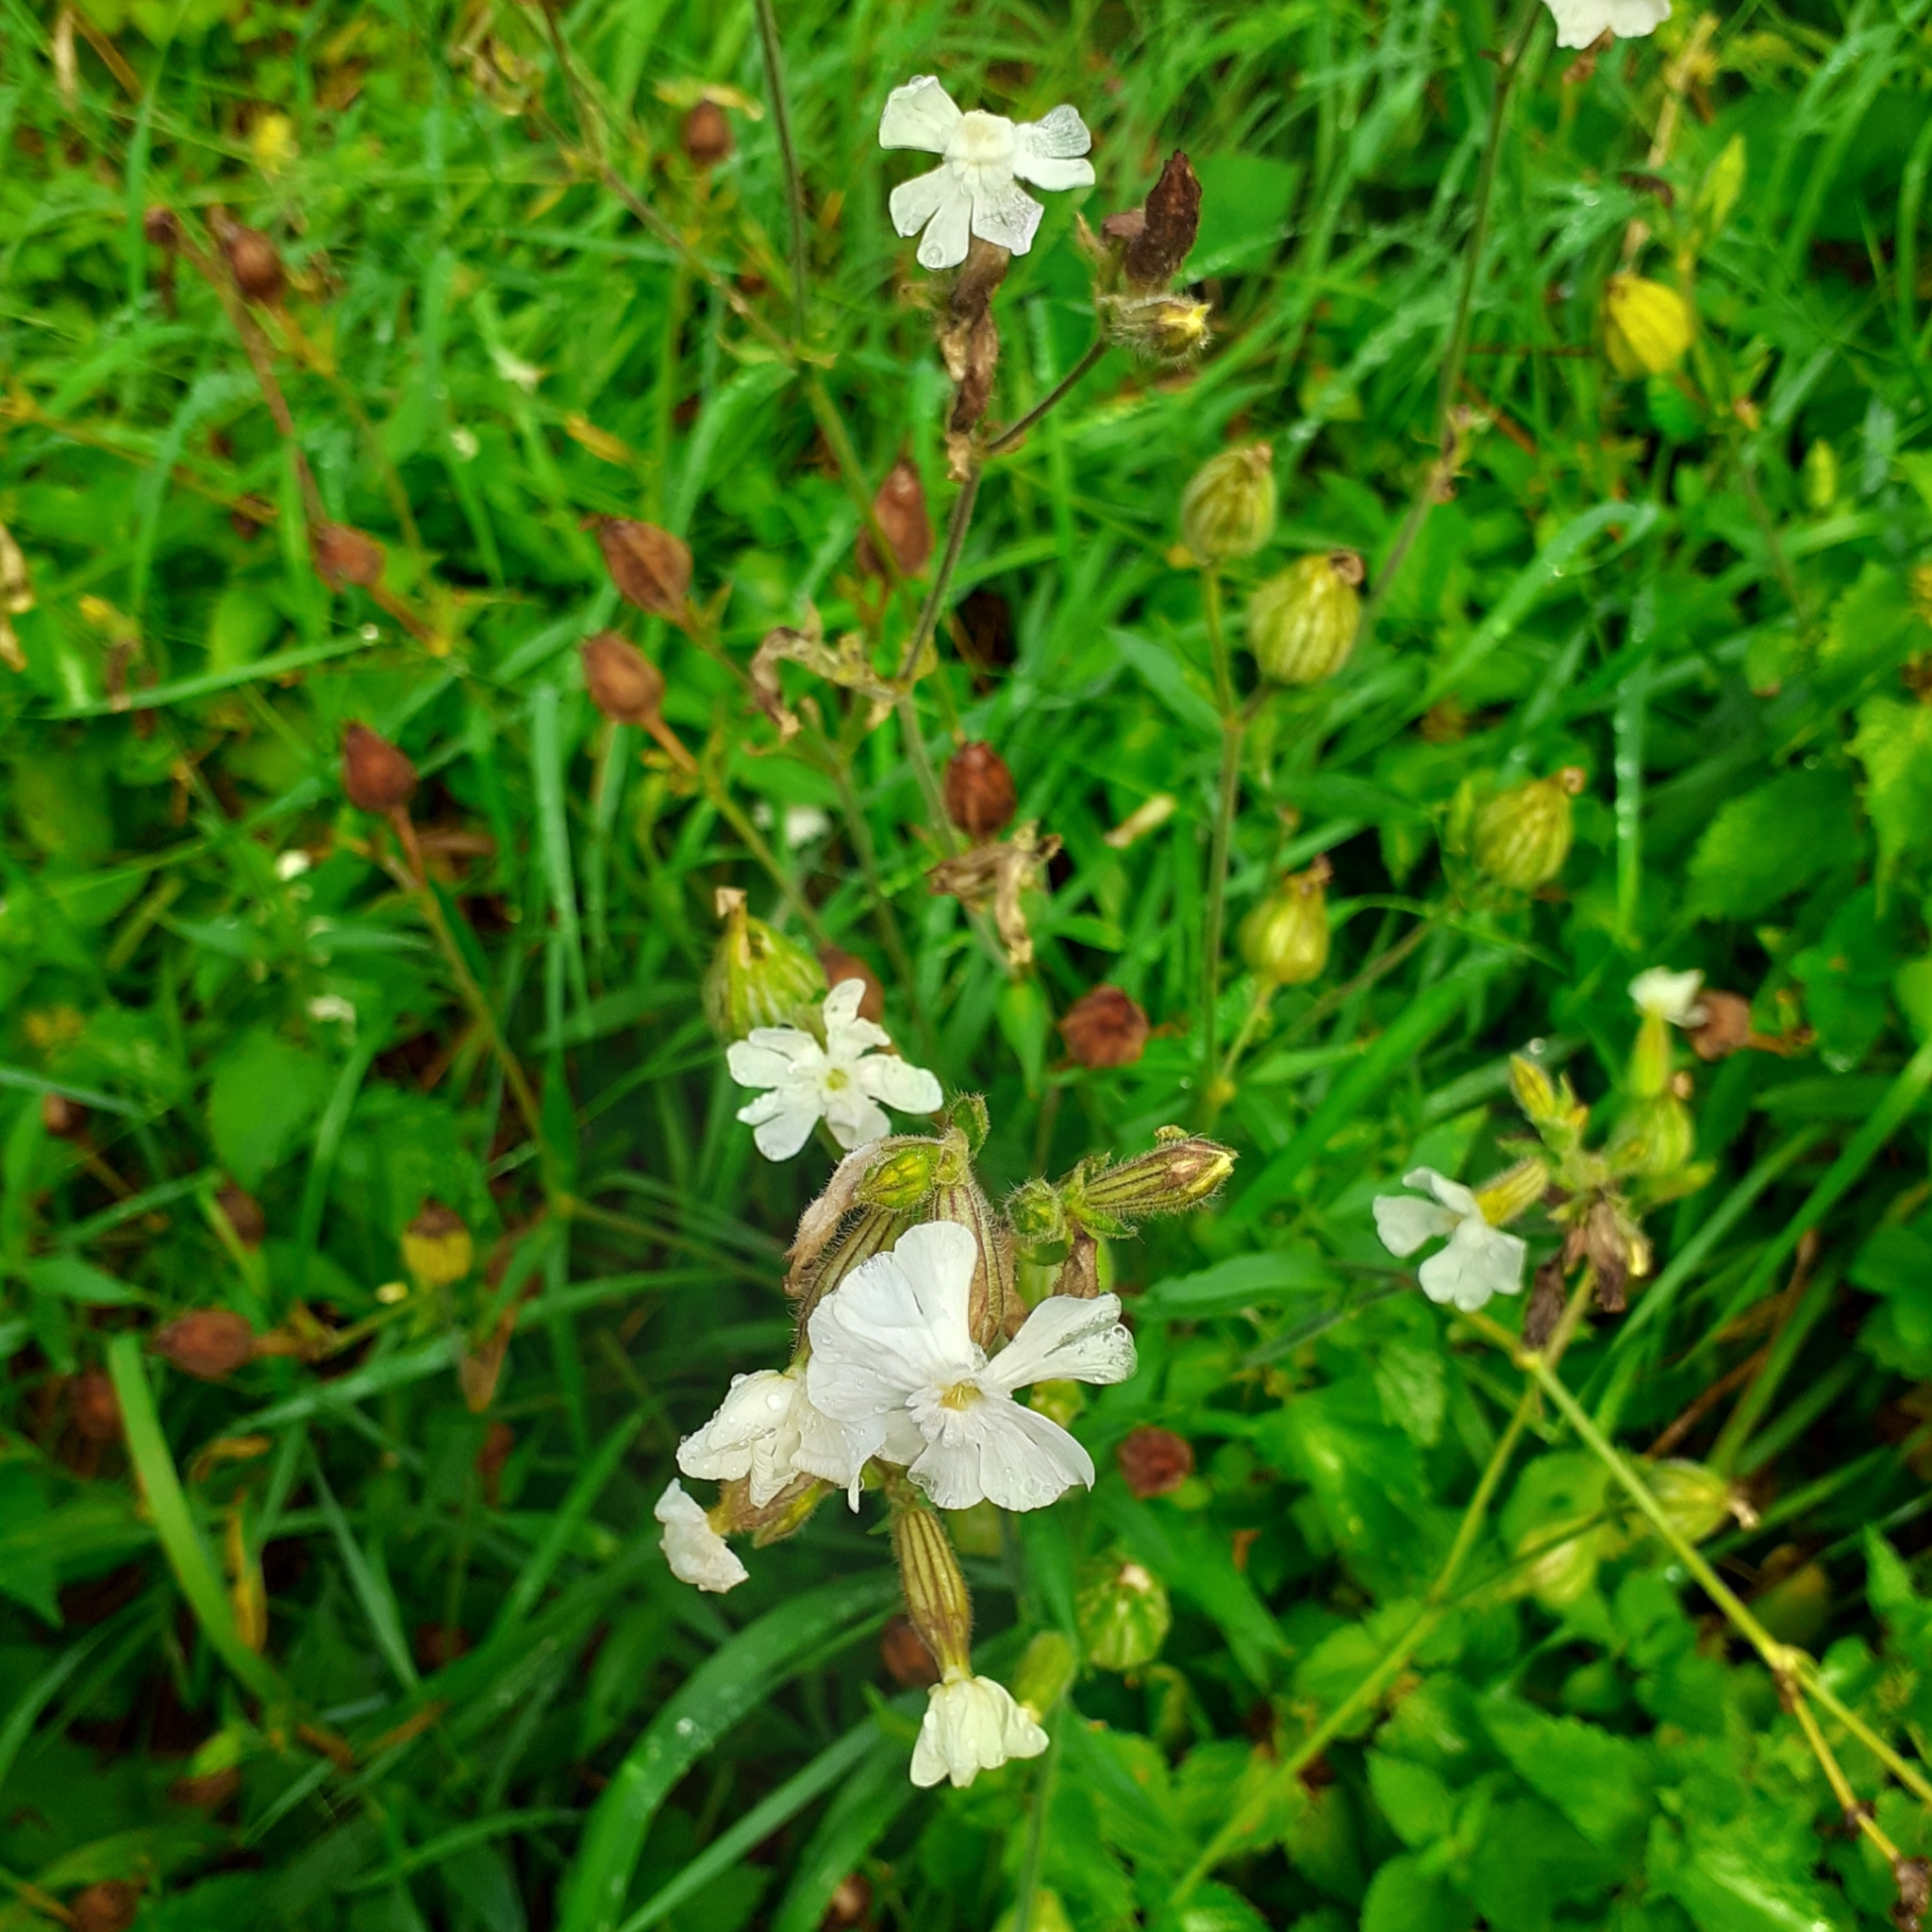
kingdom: Plantae
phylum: Tracheophyta
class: Magnoliopsida
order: Caryophyllales
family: Caryophyllaceae
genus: Silene
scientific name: Silene latifolia
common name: White campion
